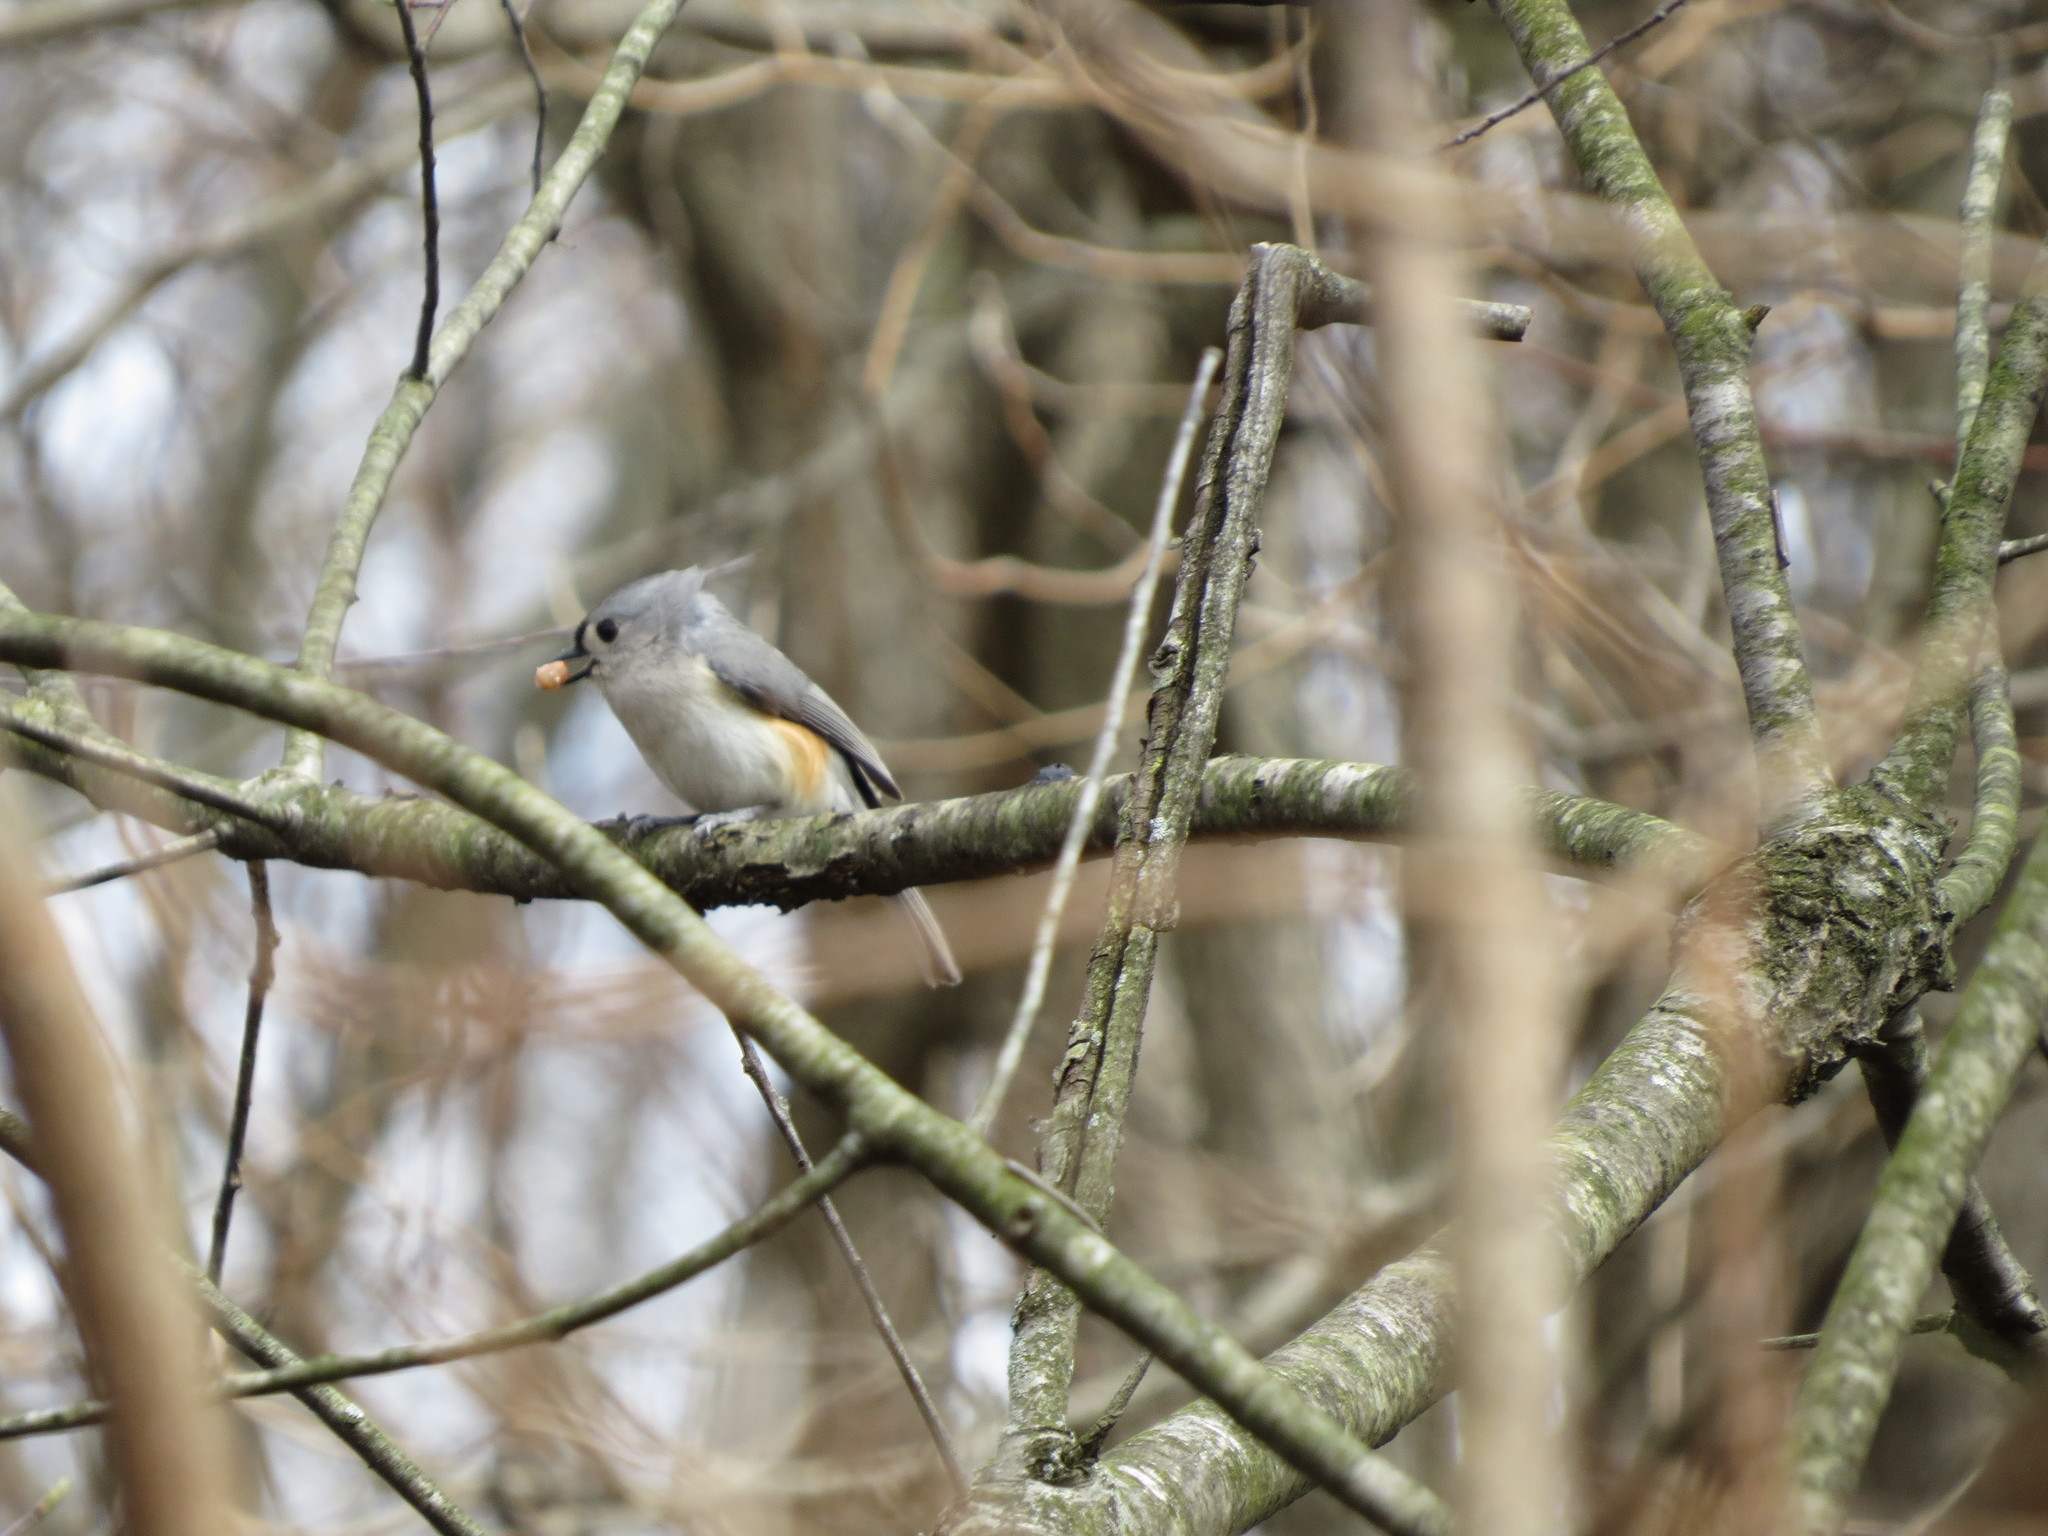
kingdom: Animalia
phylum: Chordata
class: Aves
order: Passeriformes
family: Paridae
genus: Baeolophus
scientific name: Baeolophus bicolor
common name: Tufted titmouse
